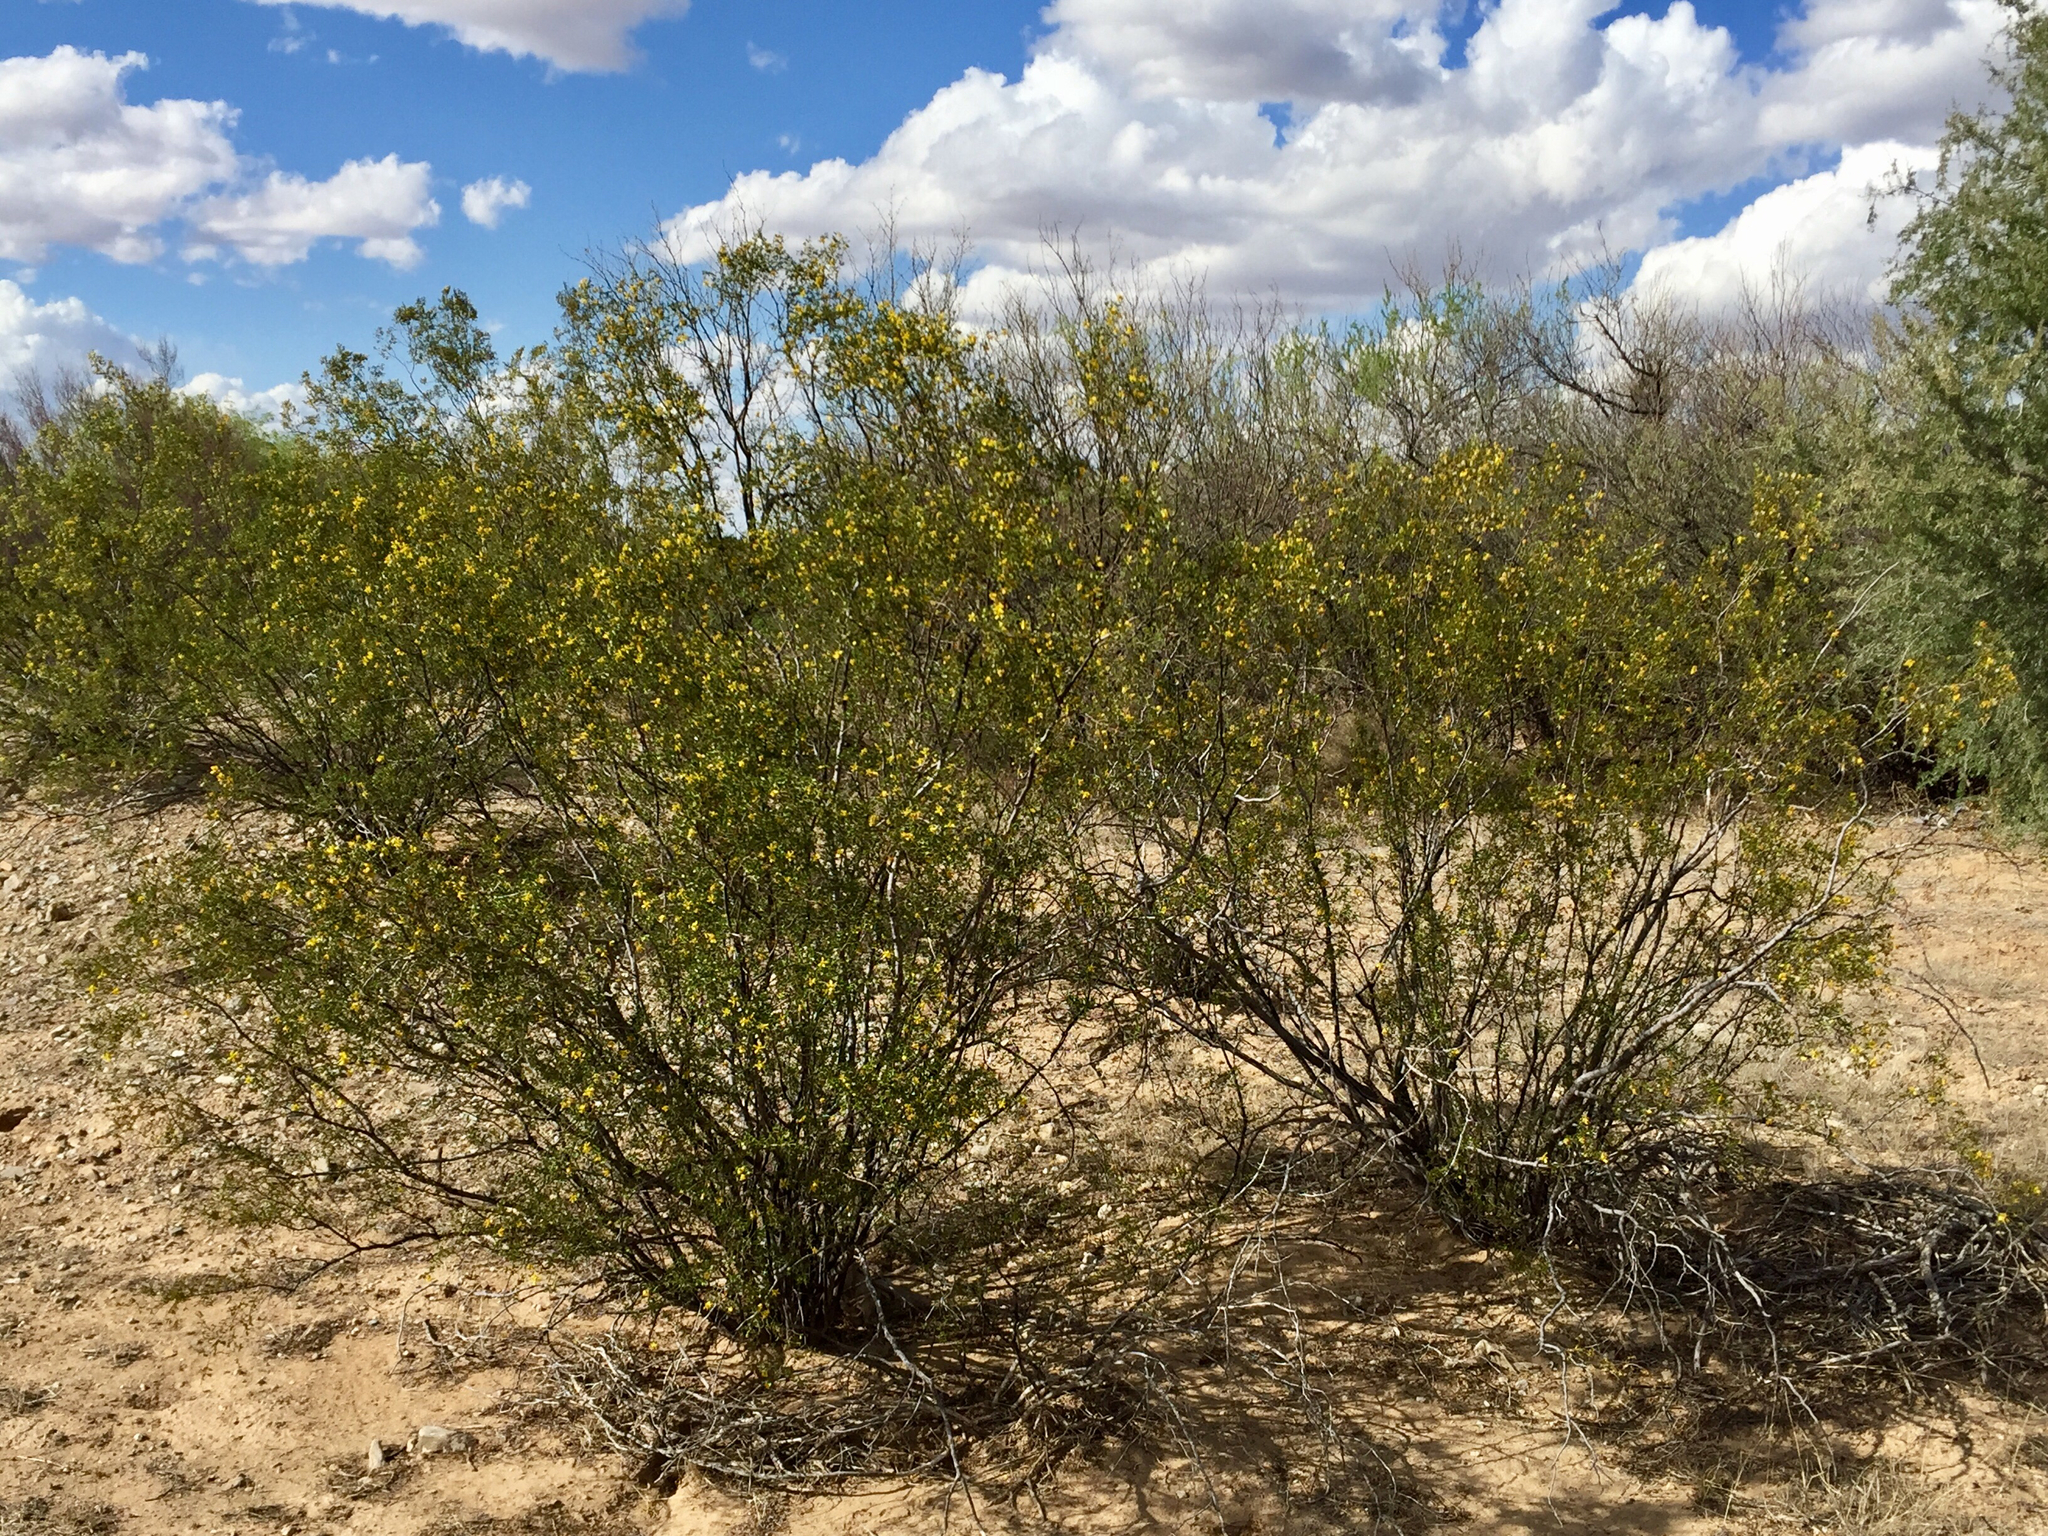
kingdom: Plantae
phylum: Tracheophyta
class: Magnoliopsida
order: Zygophyllales
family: Zygophyllaceae
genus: Larrea
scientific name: Larrea tridentata
